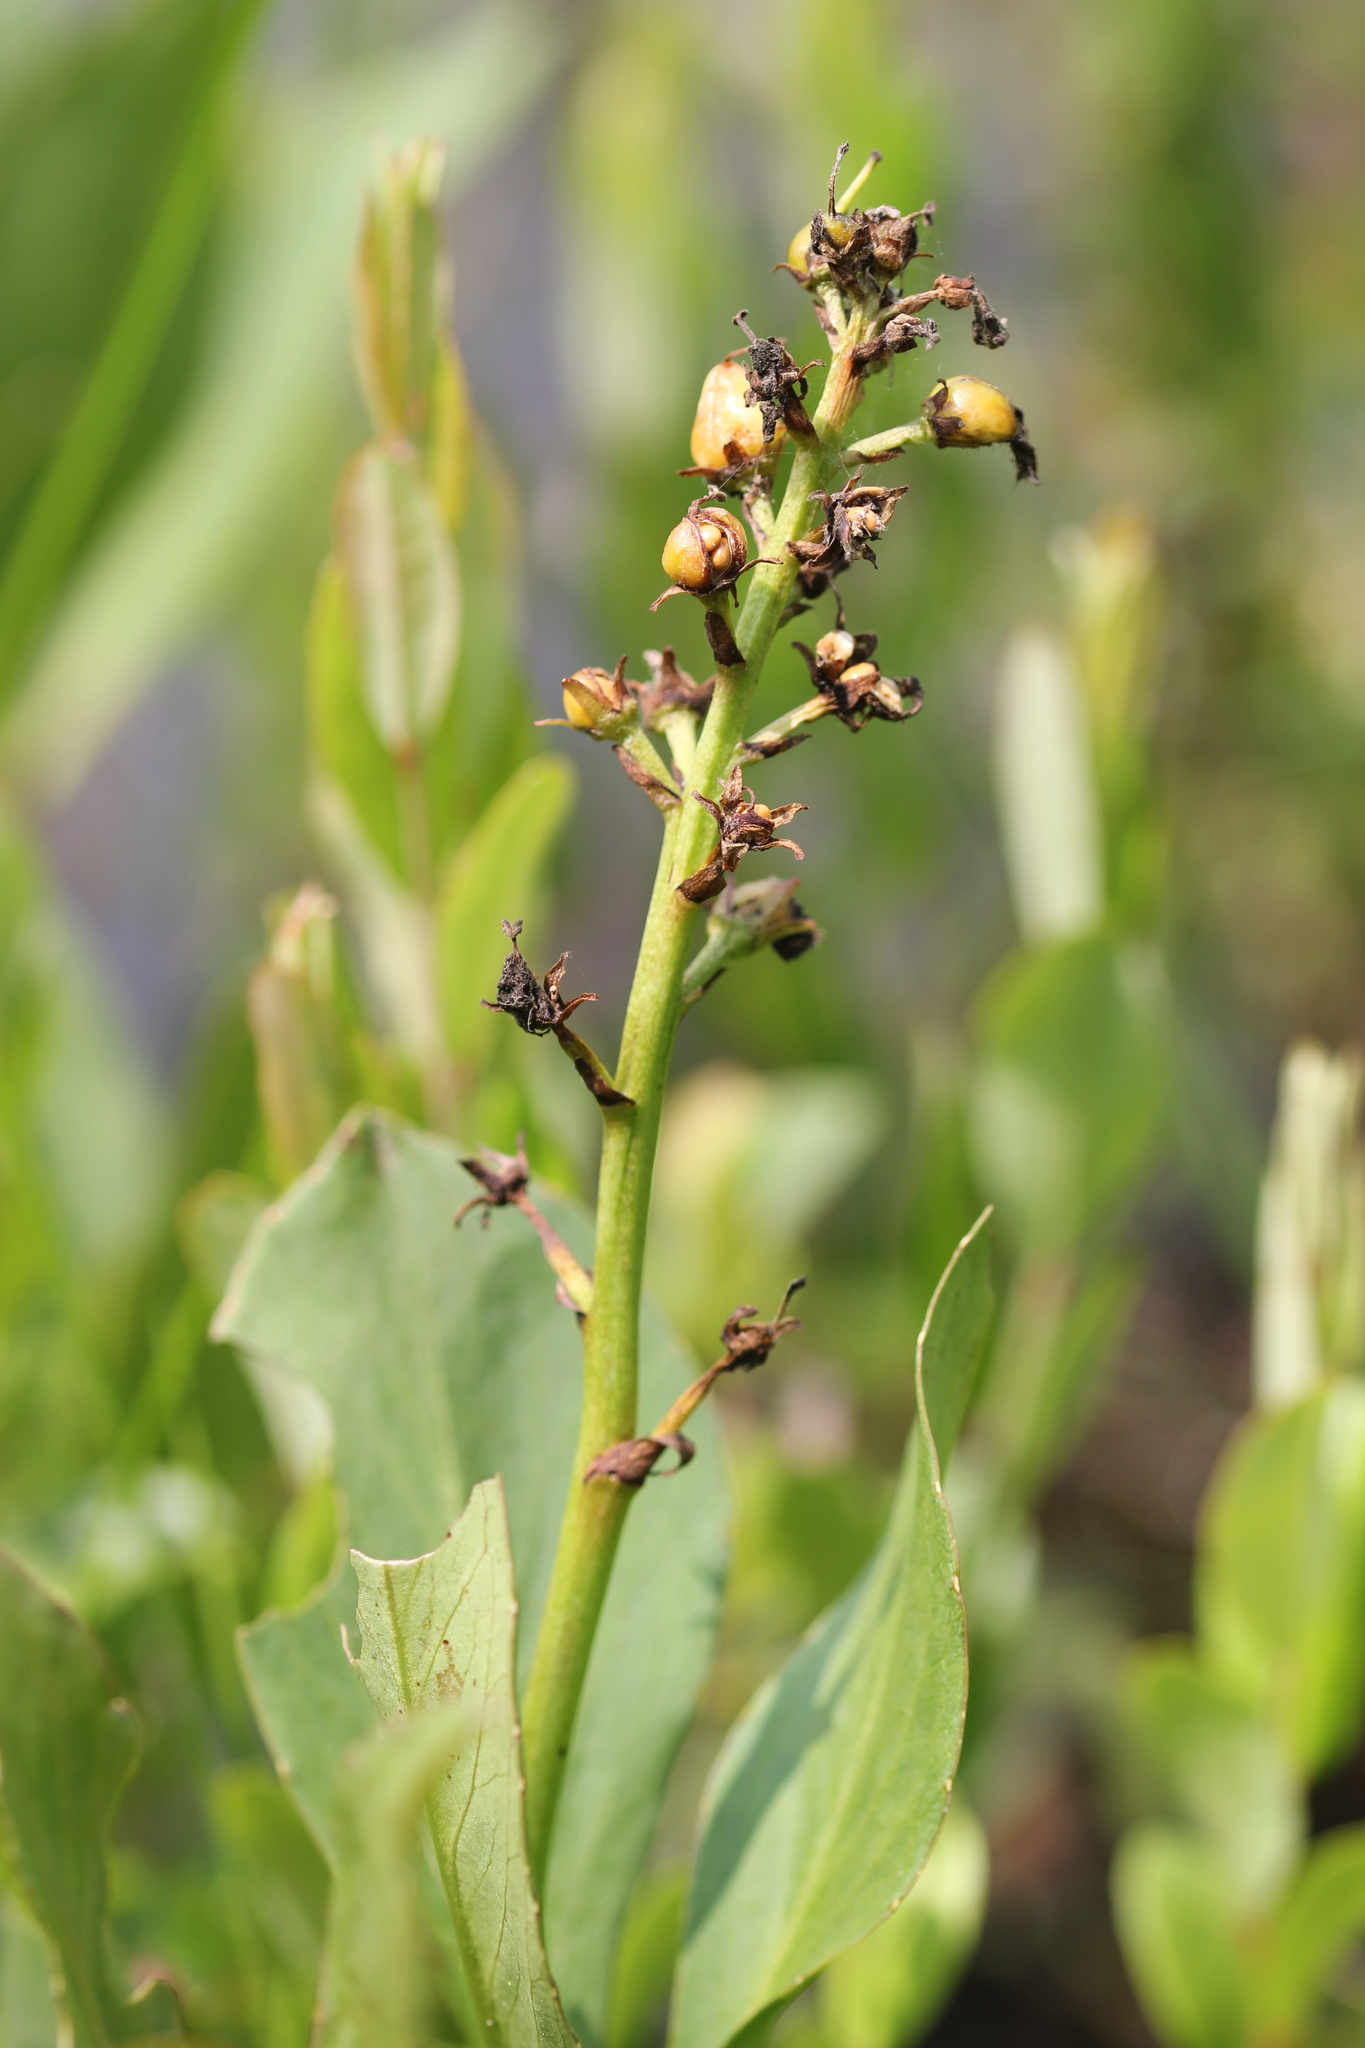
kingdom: Plantae
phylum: Tracheophyta
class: Magnoliopsida
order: Asterales
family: Menyanthaceae
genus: Menyanthes
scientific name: Menyanthes trifoliata
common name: Bogbean
